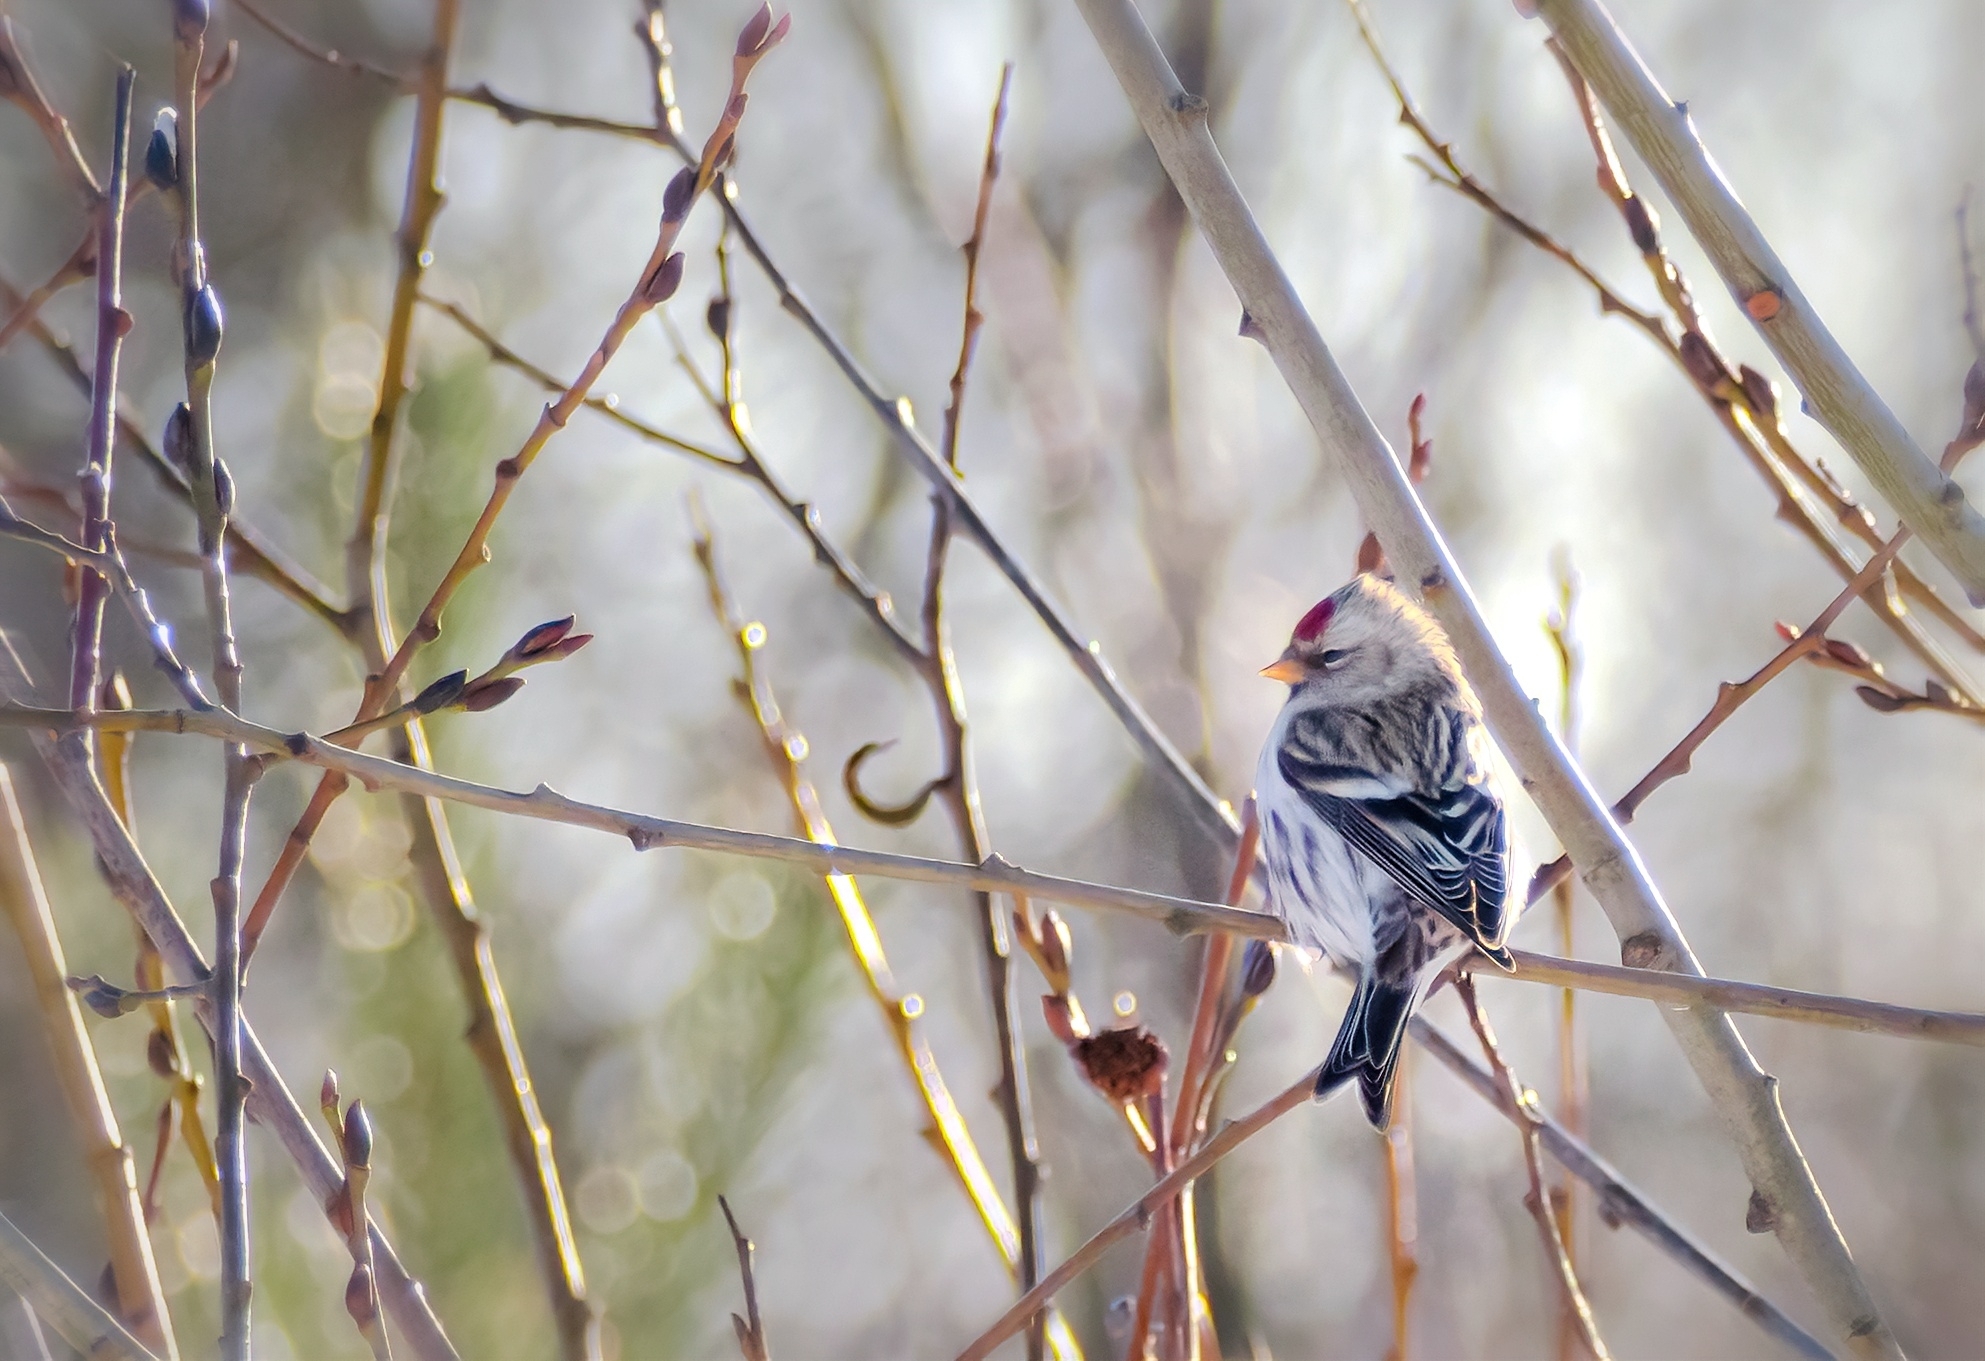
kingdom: Animalia
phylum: Chordata
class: Aves
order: Passeriformes
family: Fringillidae
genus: Acanthis
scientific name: Acanthis flammea
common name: Common redpoll
